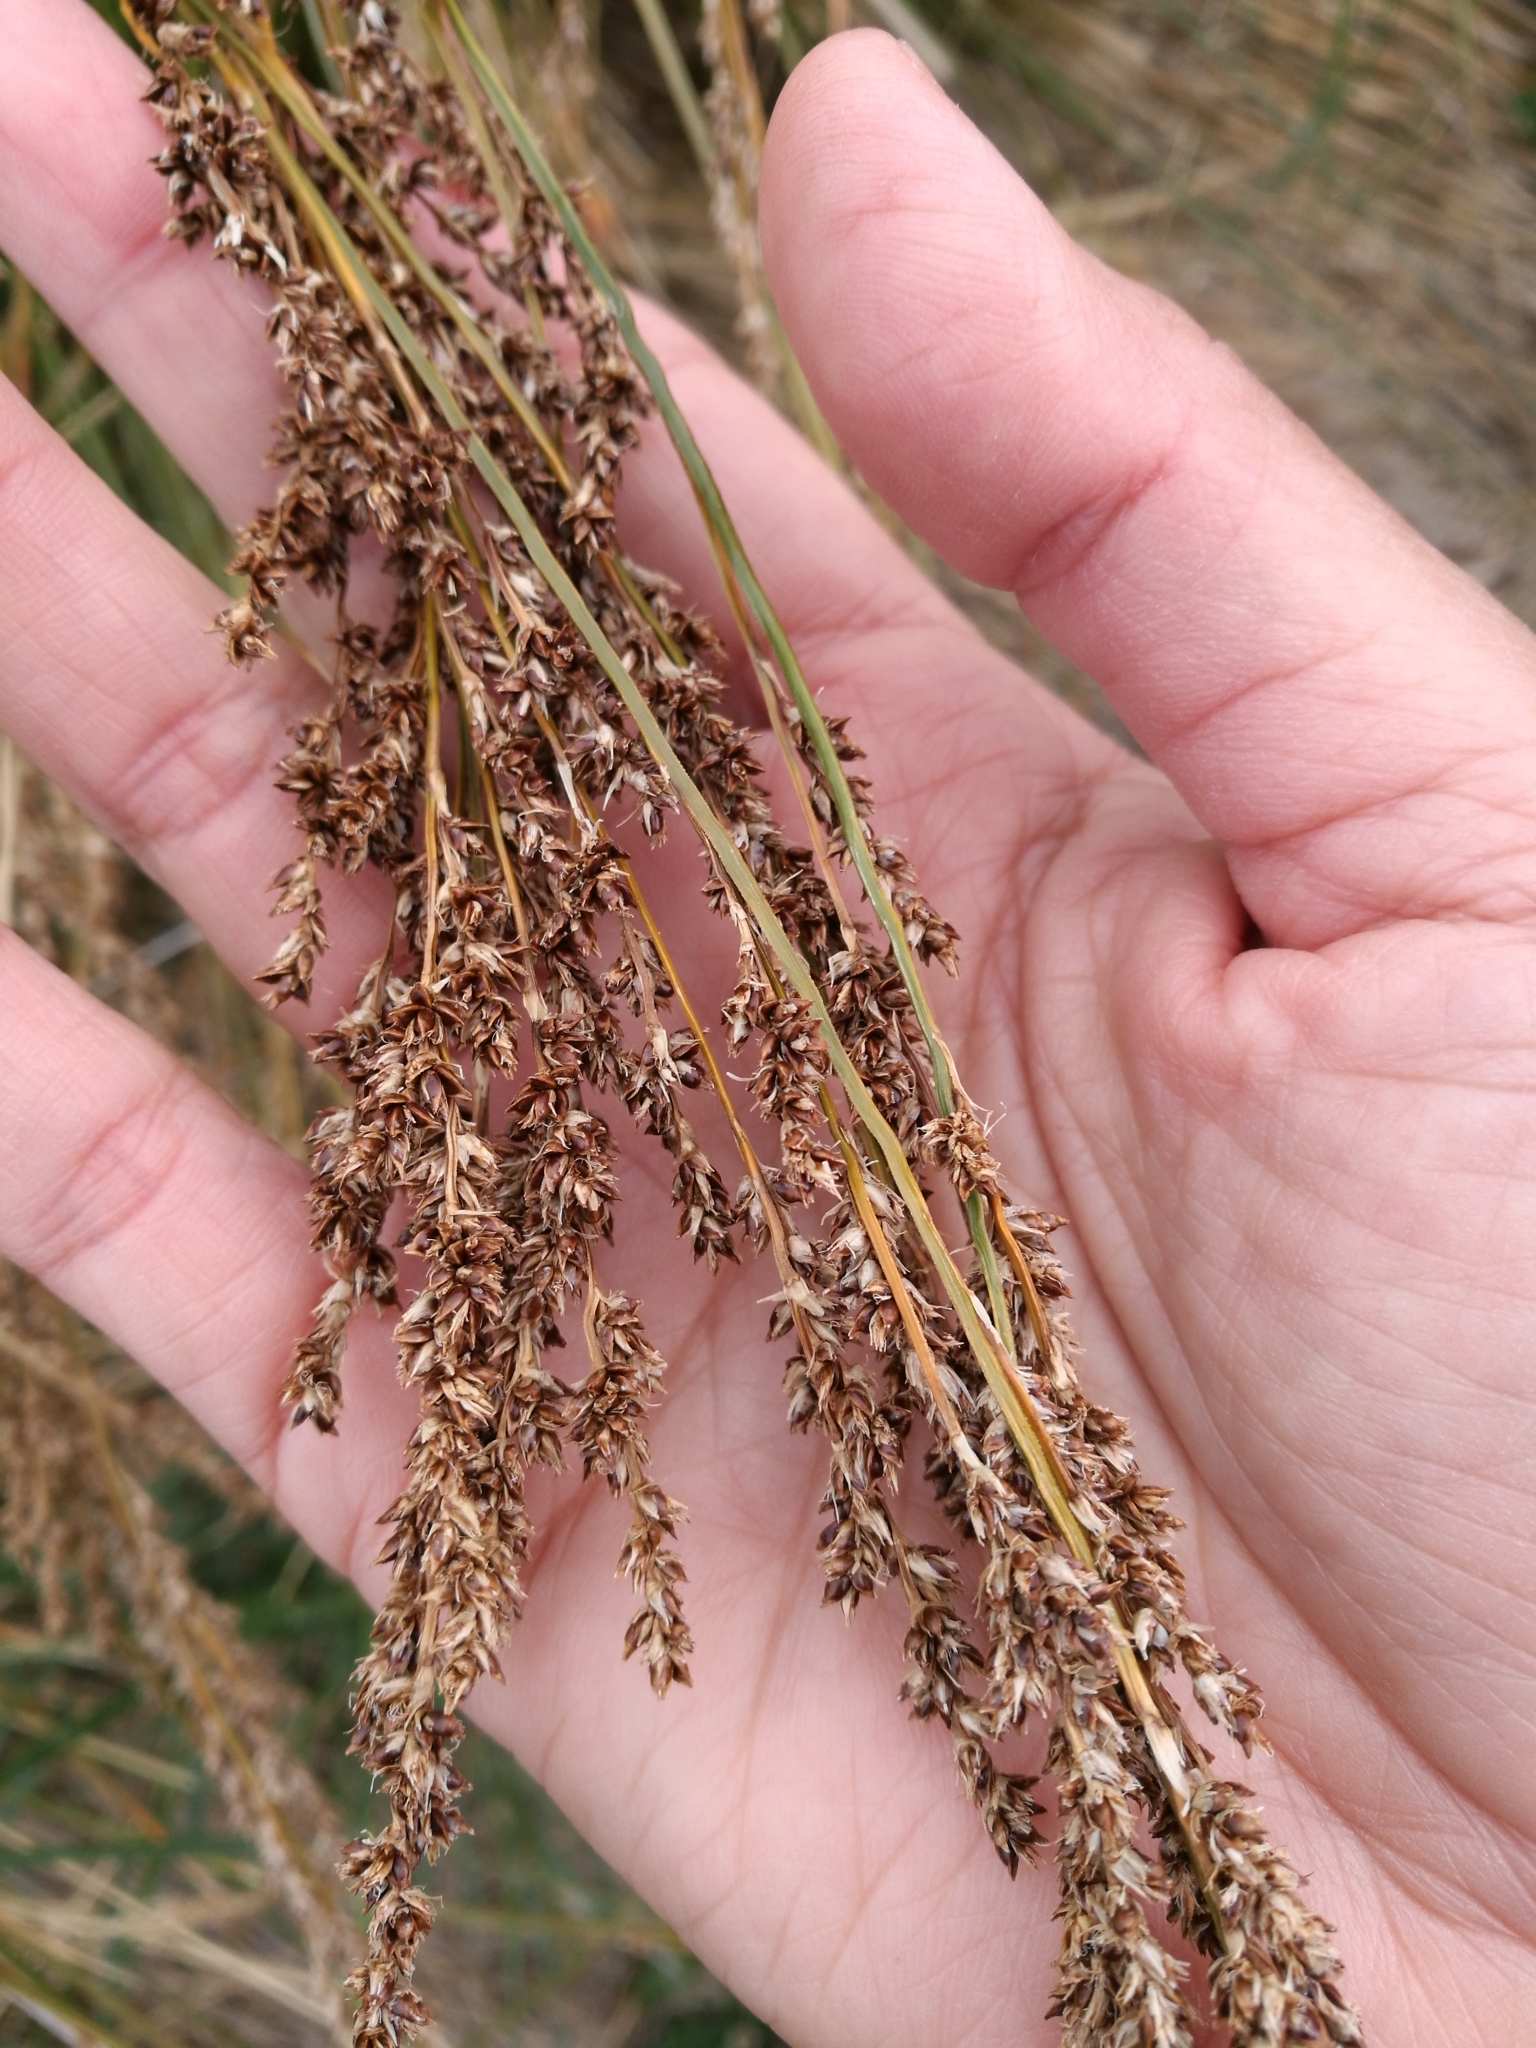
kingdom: Plantae
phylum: Tracheophyta
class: Liliopsida
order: Poales
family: Cyperaceae
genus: Carex
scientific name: Carex secta
